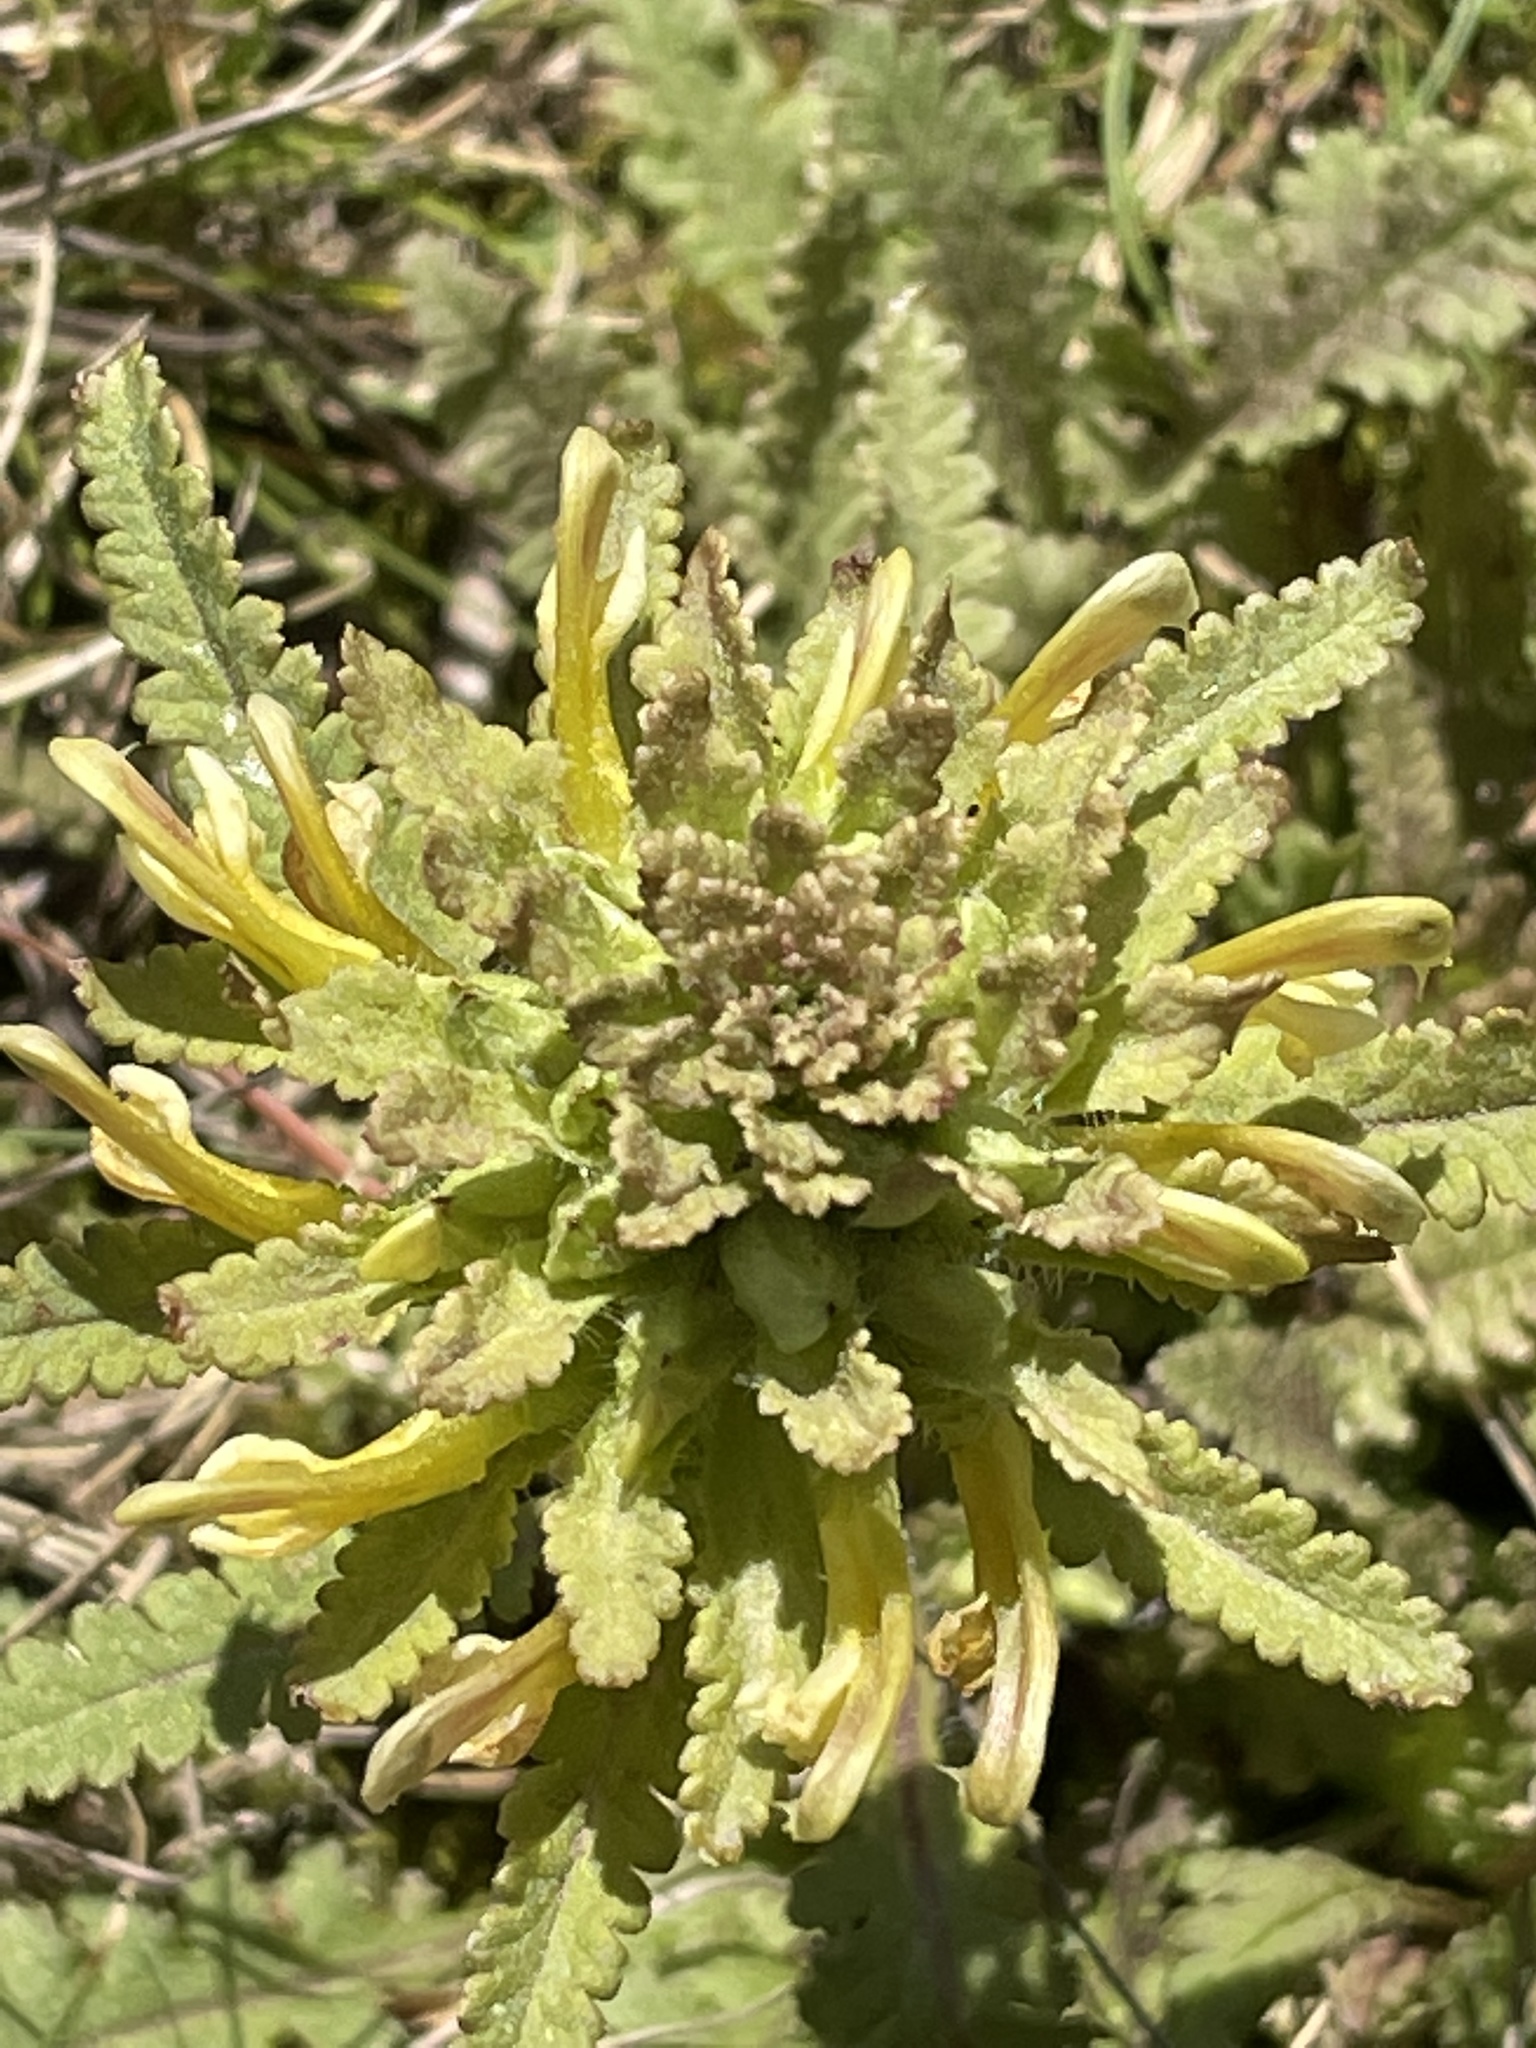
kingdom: Plantae
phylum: Tracheophyta
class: Magnoliopsida
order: Lamiales
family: Orobanchaceae
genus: Pedicularis
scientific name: Pedicularis canadensis
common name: Early lousewort
